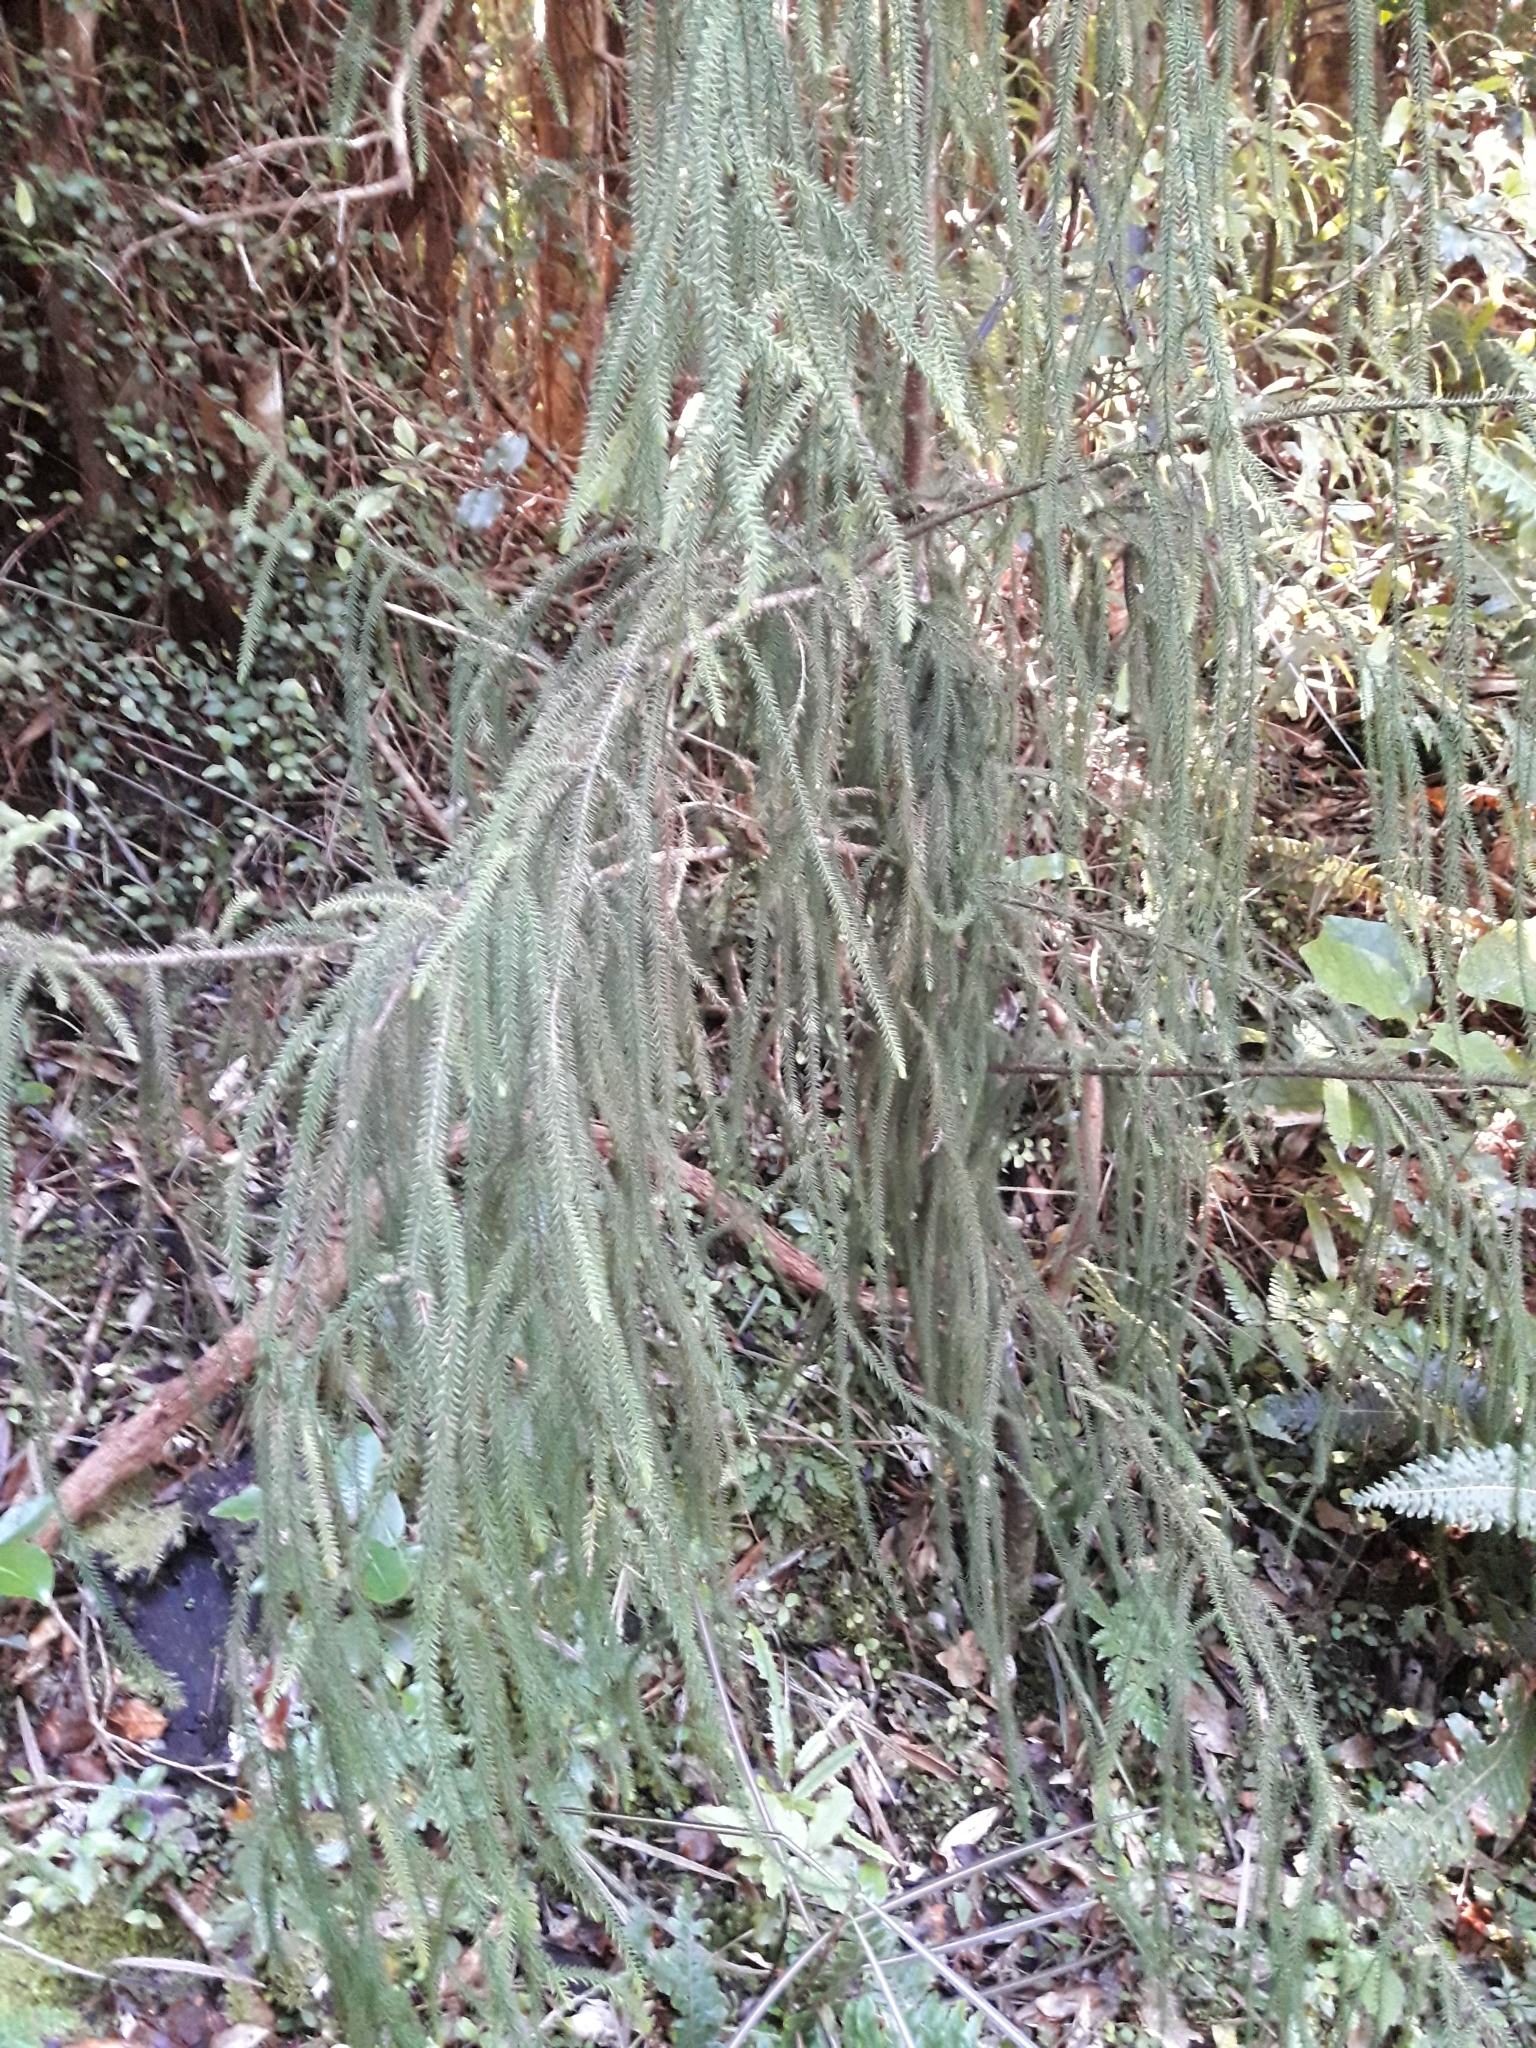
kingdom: Plantae
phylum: Tracheophyta
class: Pinopsida
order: Pinales
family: Podocarpaceae
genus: Dacrydium
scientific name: Dacrydium cupressinum
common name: Red pine
